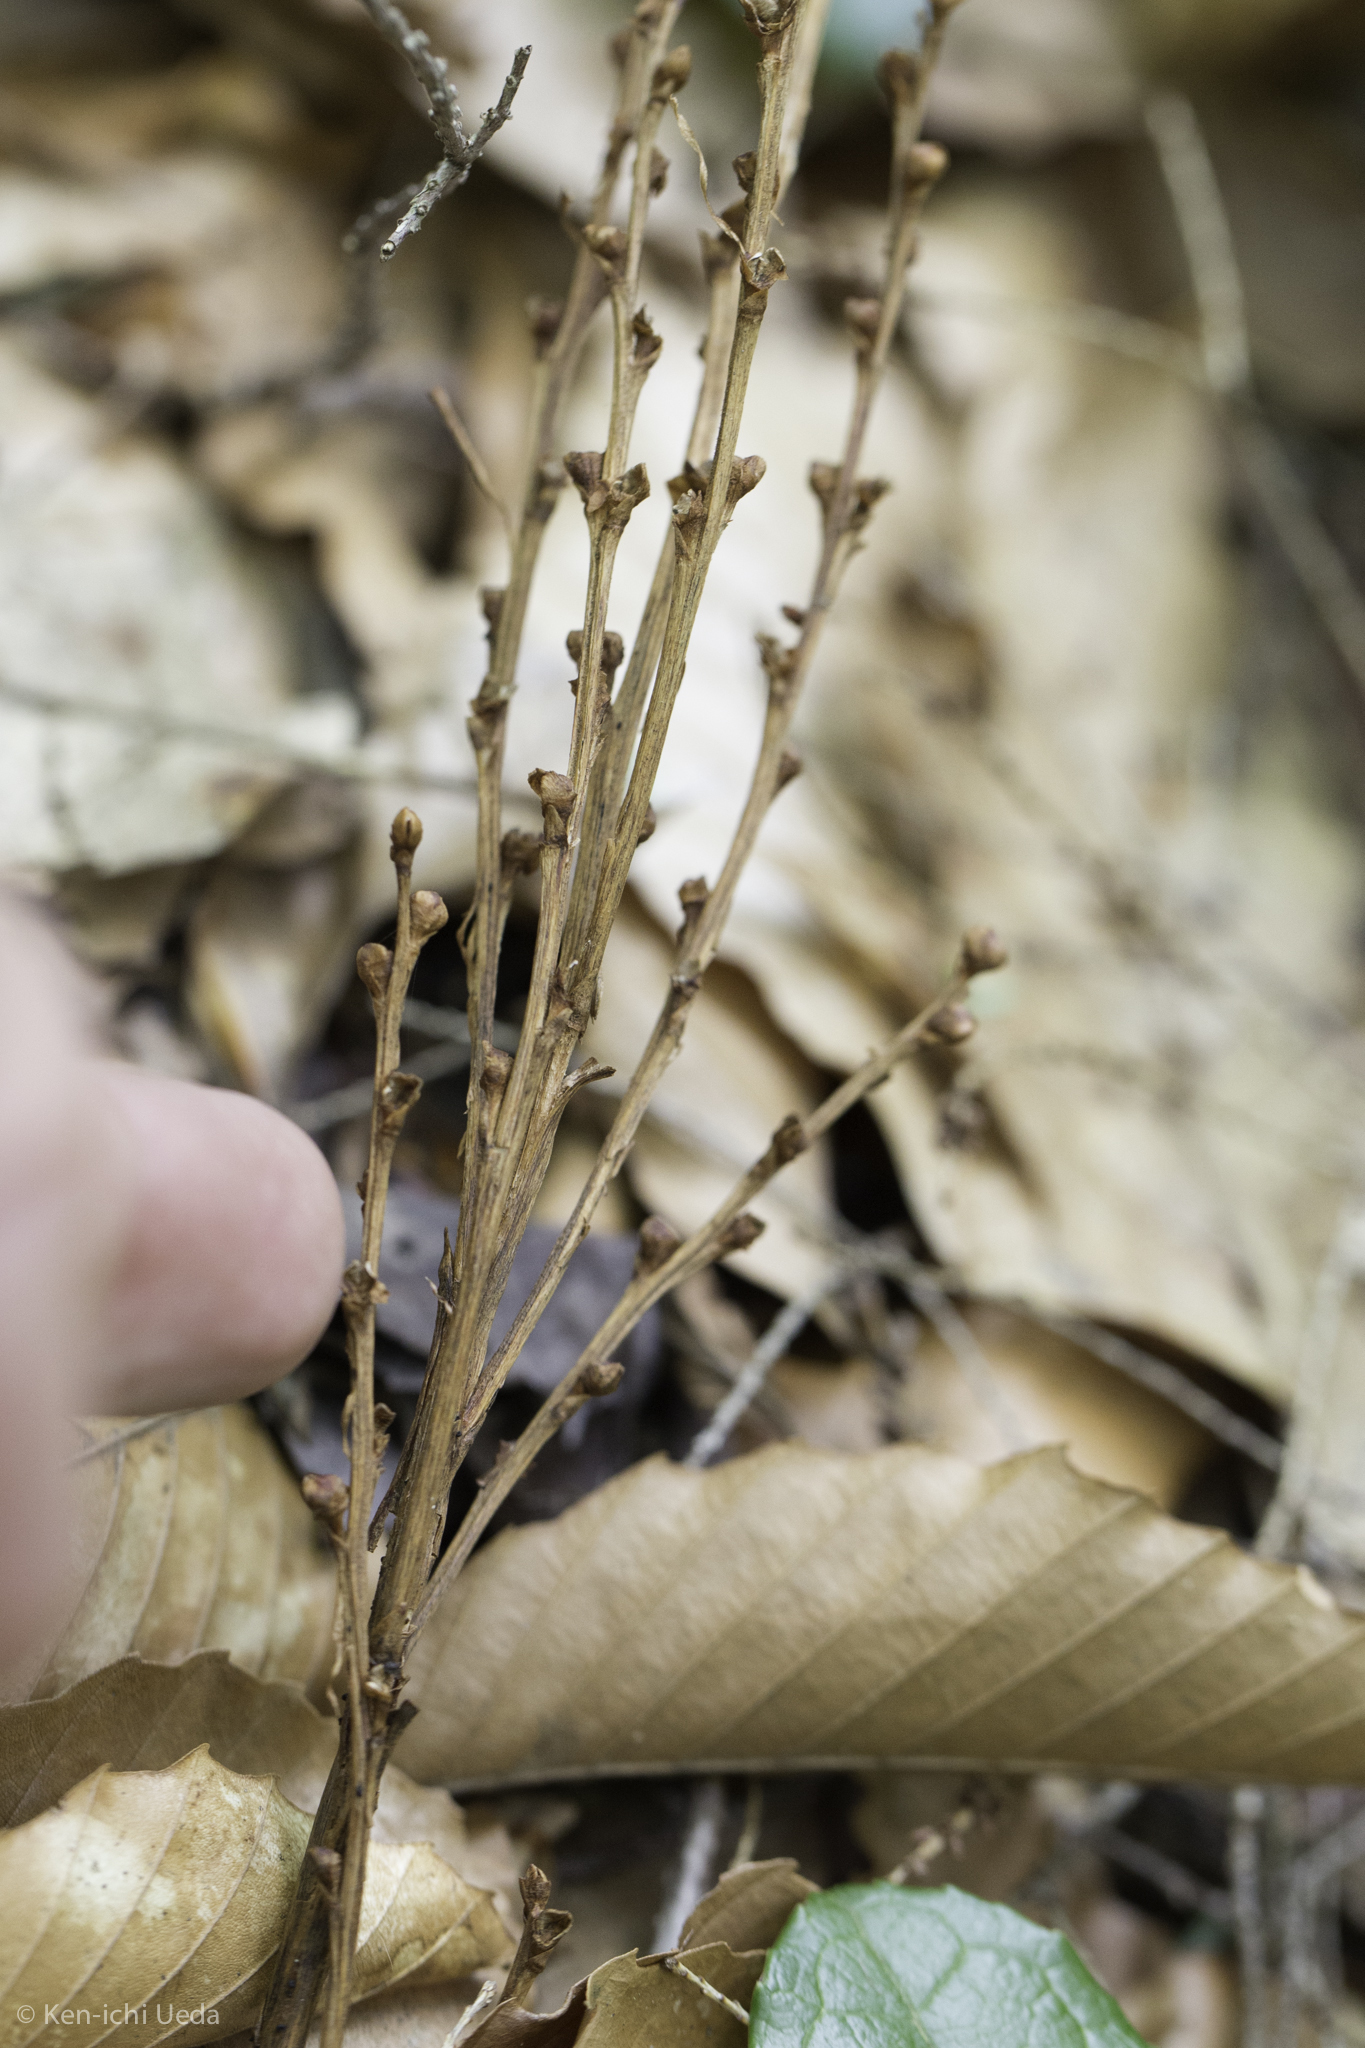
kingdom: Plantae
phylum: Tracheophyta
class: Magnoliopsida
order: Lamiales
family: Orobanchaceae
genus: Epifagus
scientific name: Epifagus virginiana
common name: Beechdrops
